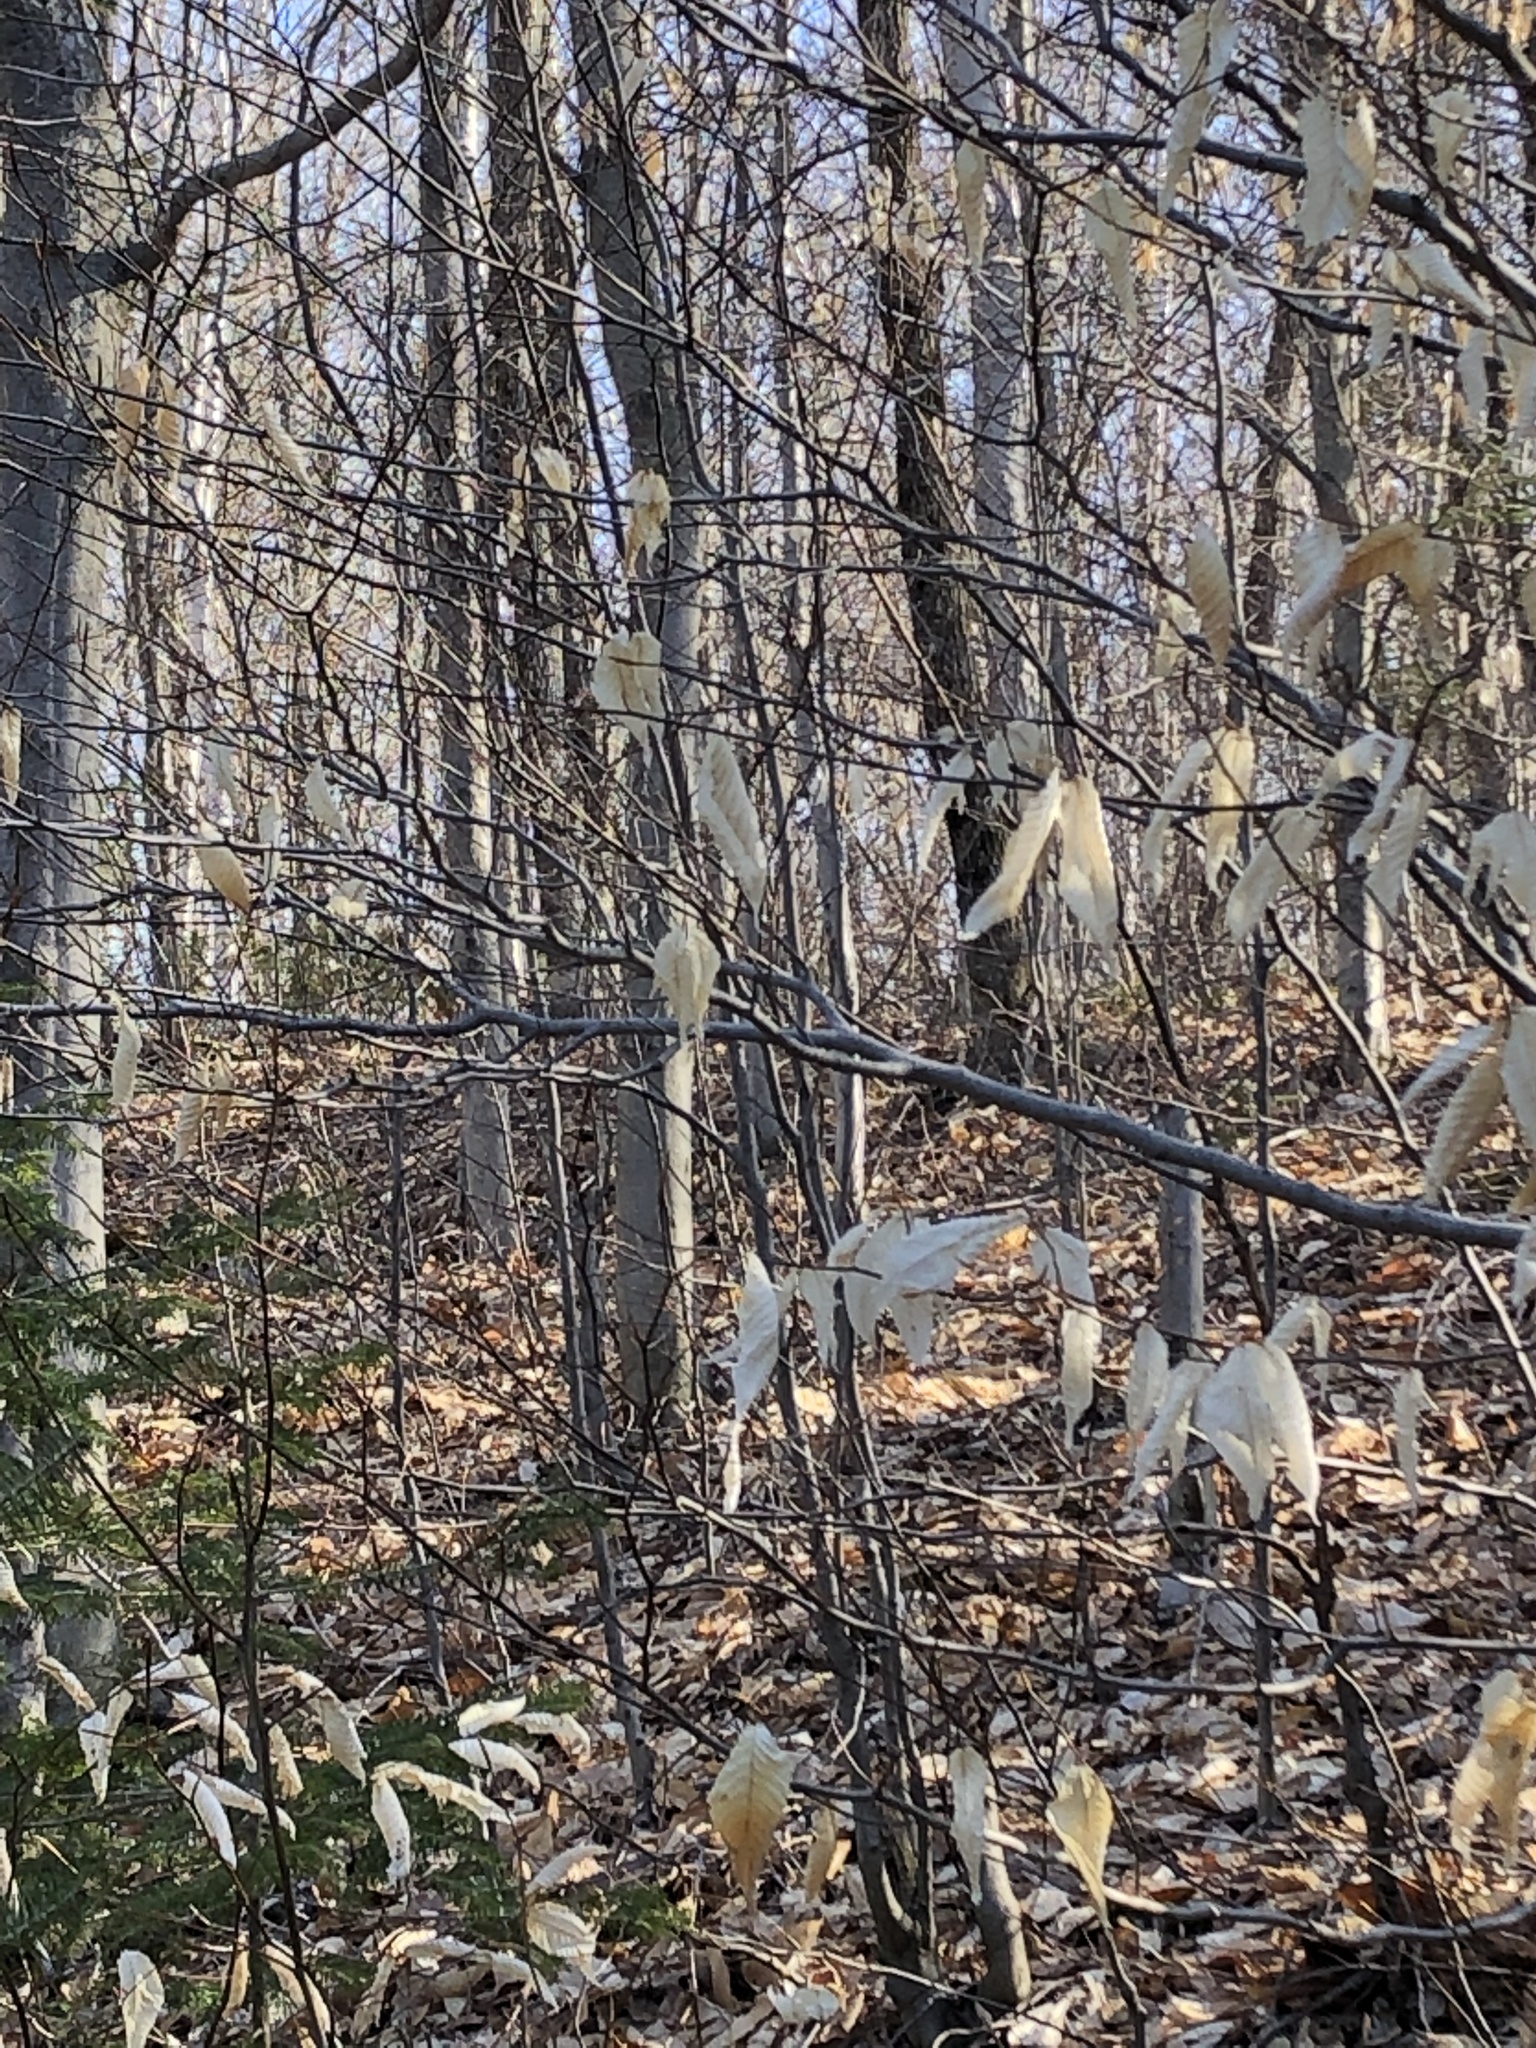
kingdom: Plantae
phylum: Tracheophyta
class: Magnoliopsida
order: Fagales
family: Fagaceae
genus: Fagus
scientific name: Fagus grandifolia
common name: American beech
